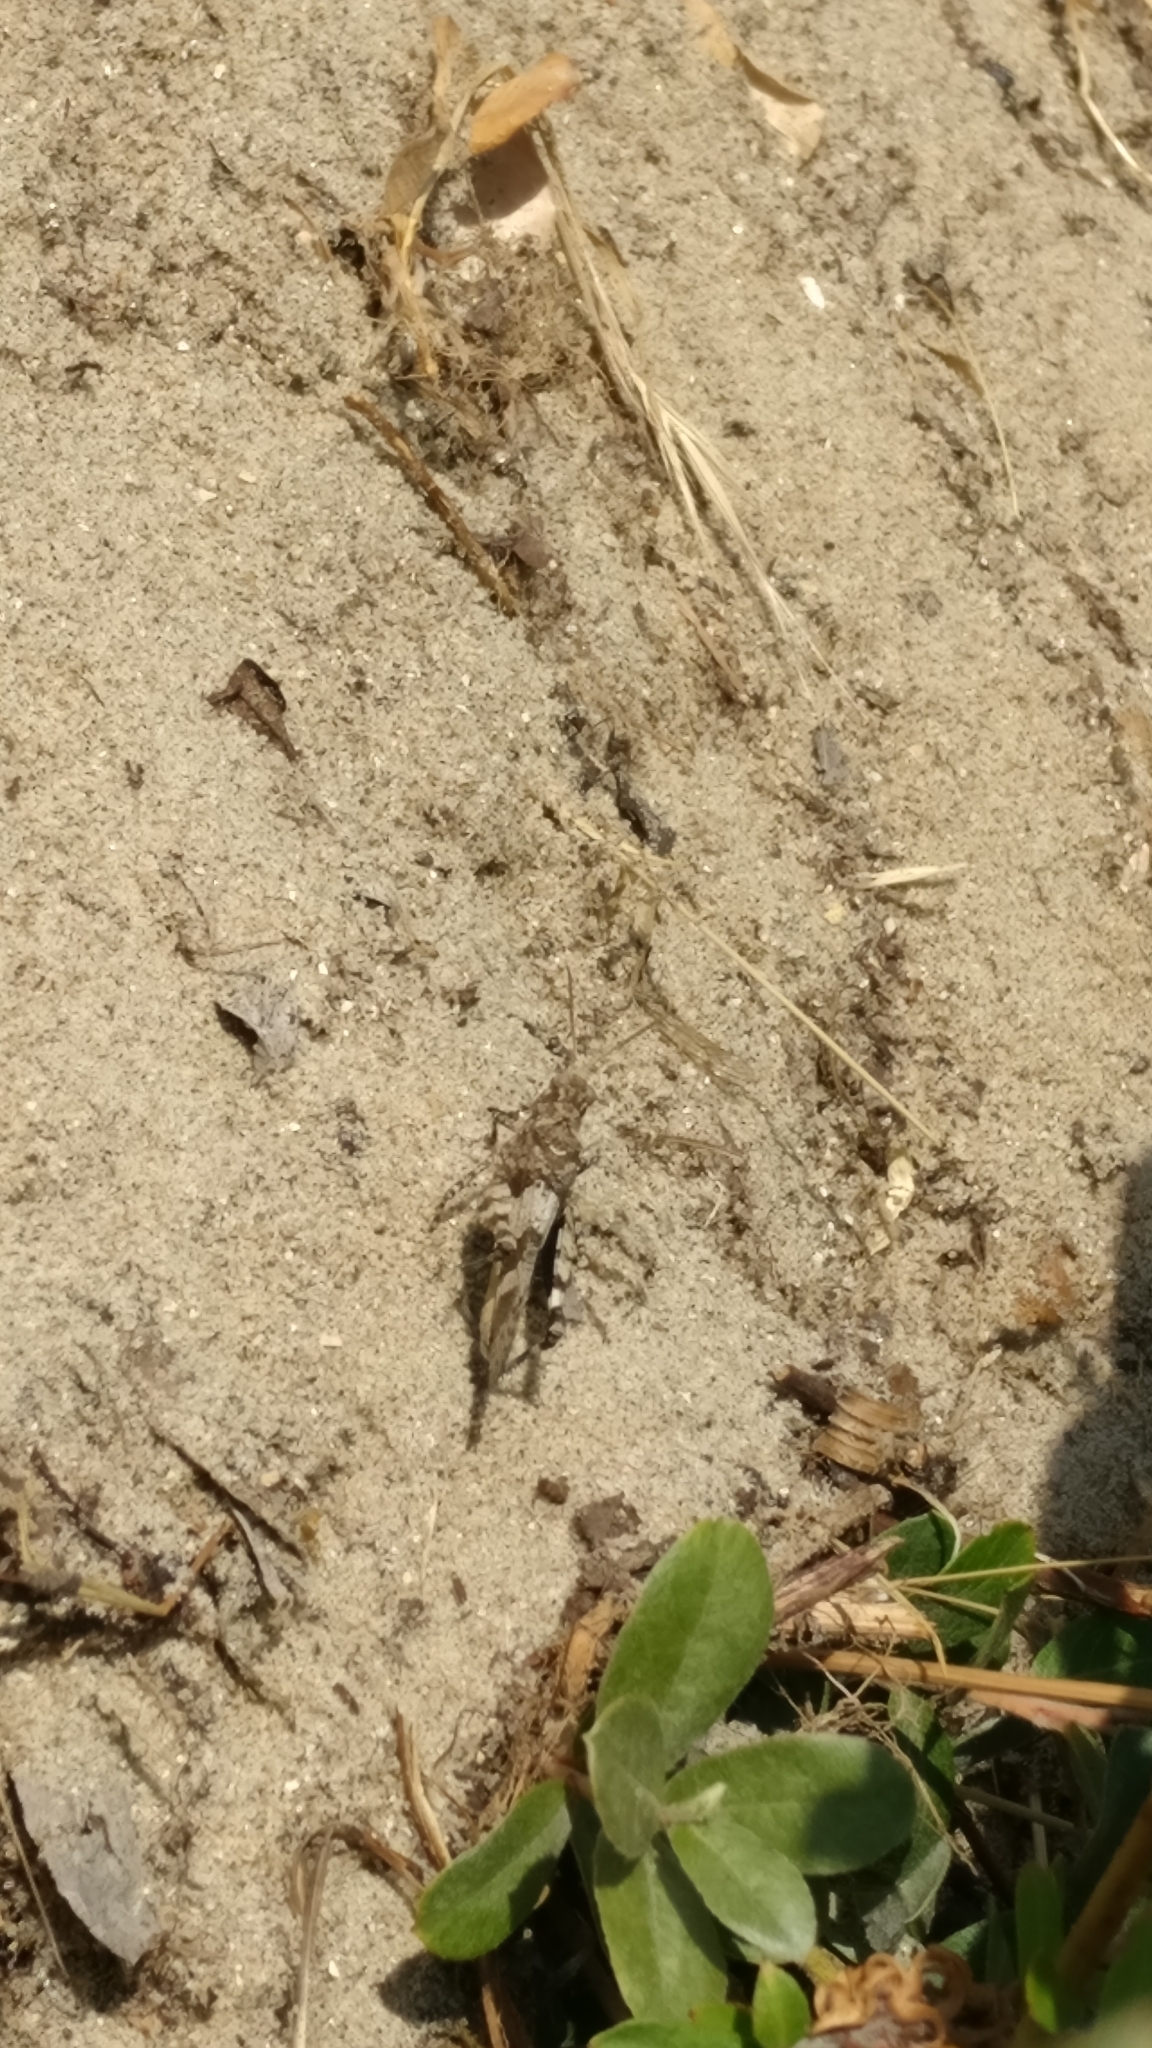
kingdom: Animalia
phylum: Arthropoda
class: Insecta
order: Orthoptera
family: Acrididae
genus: Oedipoda
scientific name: Oedipoda caerulescens
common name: Blue-winged grasshopper
